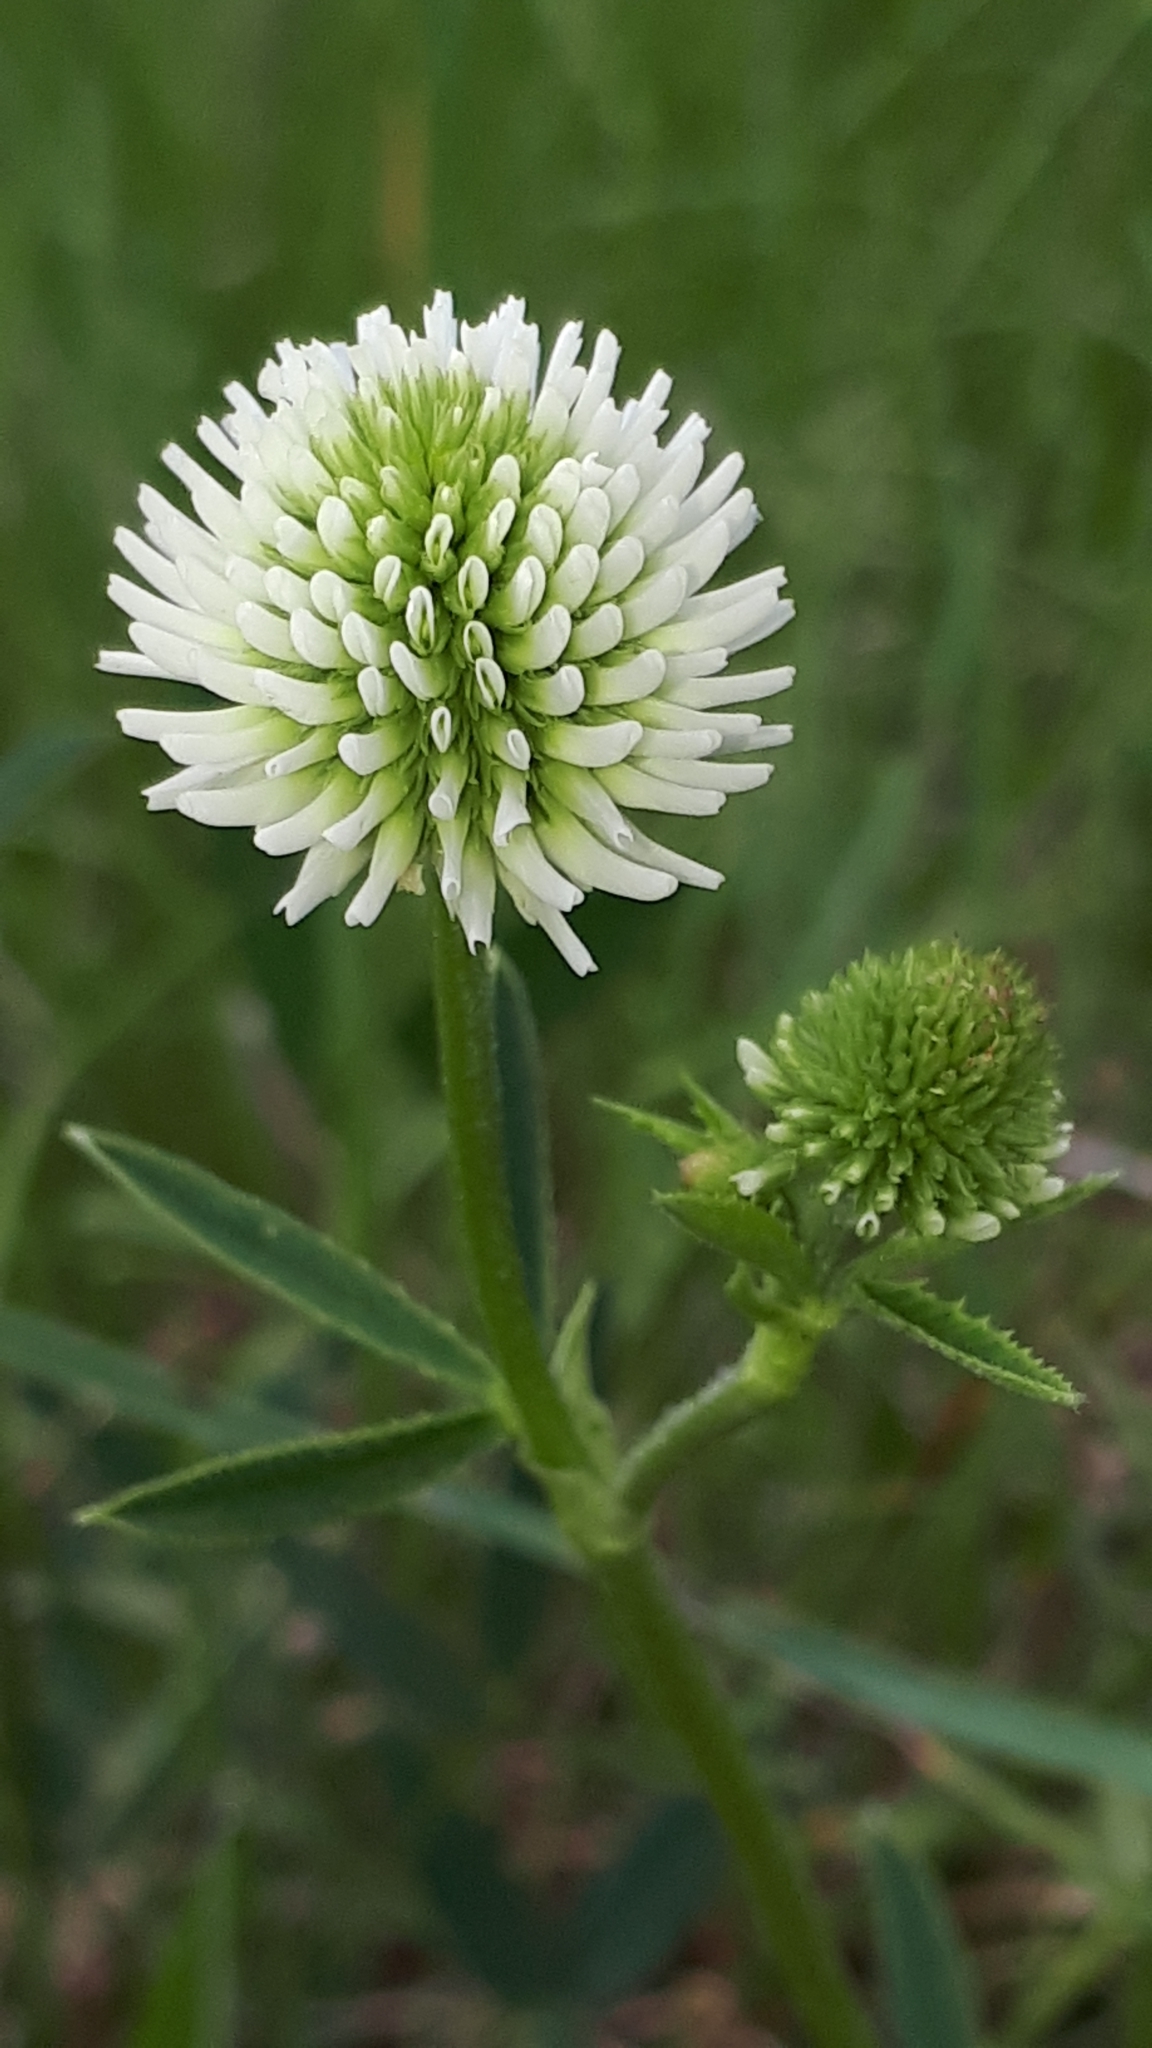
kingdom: Plantae
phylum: Tracheophyta
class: Magnoliopsida
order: Fabales
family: Fabaceae
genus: Trifolium
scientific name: Trifolium montanum
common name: Mountain clover
